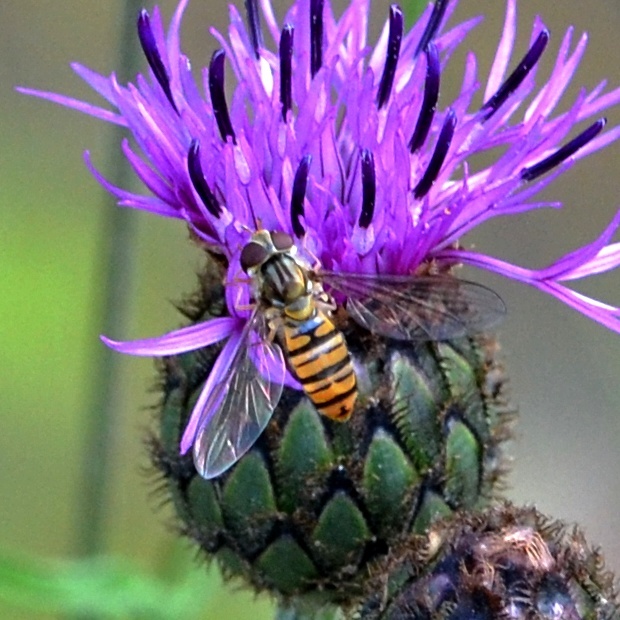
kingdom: Animalia
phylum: Arthropoda
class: Insecta
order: Diptera
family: Syrphidae
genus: Episyrphus
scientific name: Episyrphus balteatus
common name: Marmalade hoverfly
